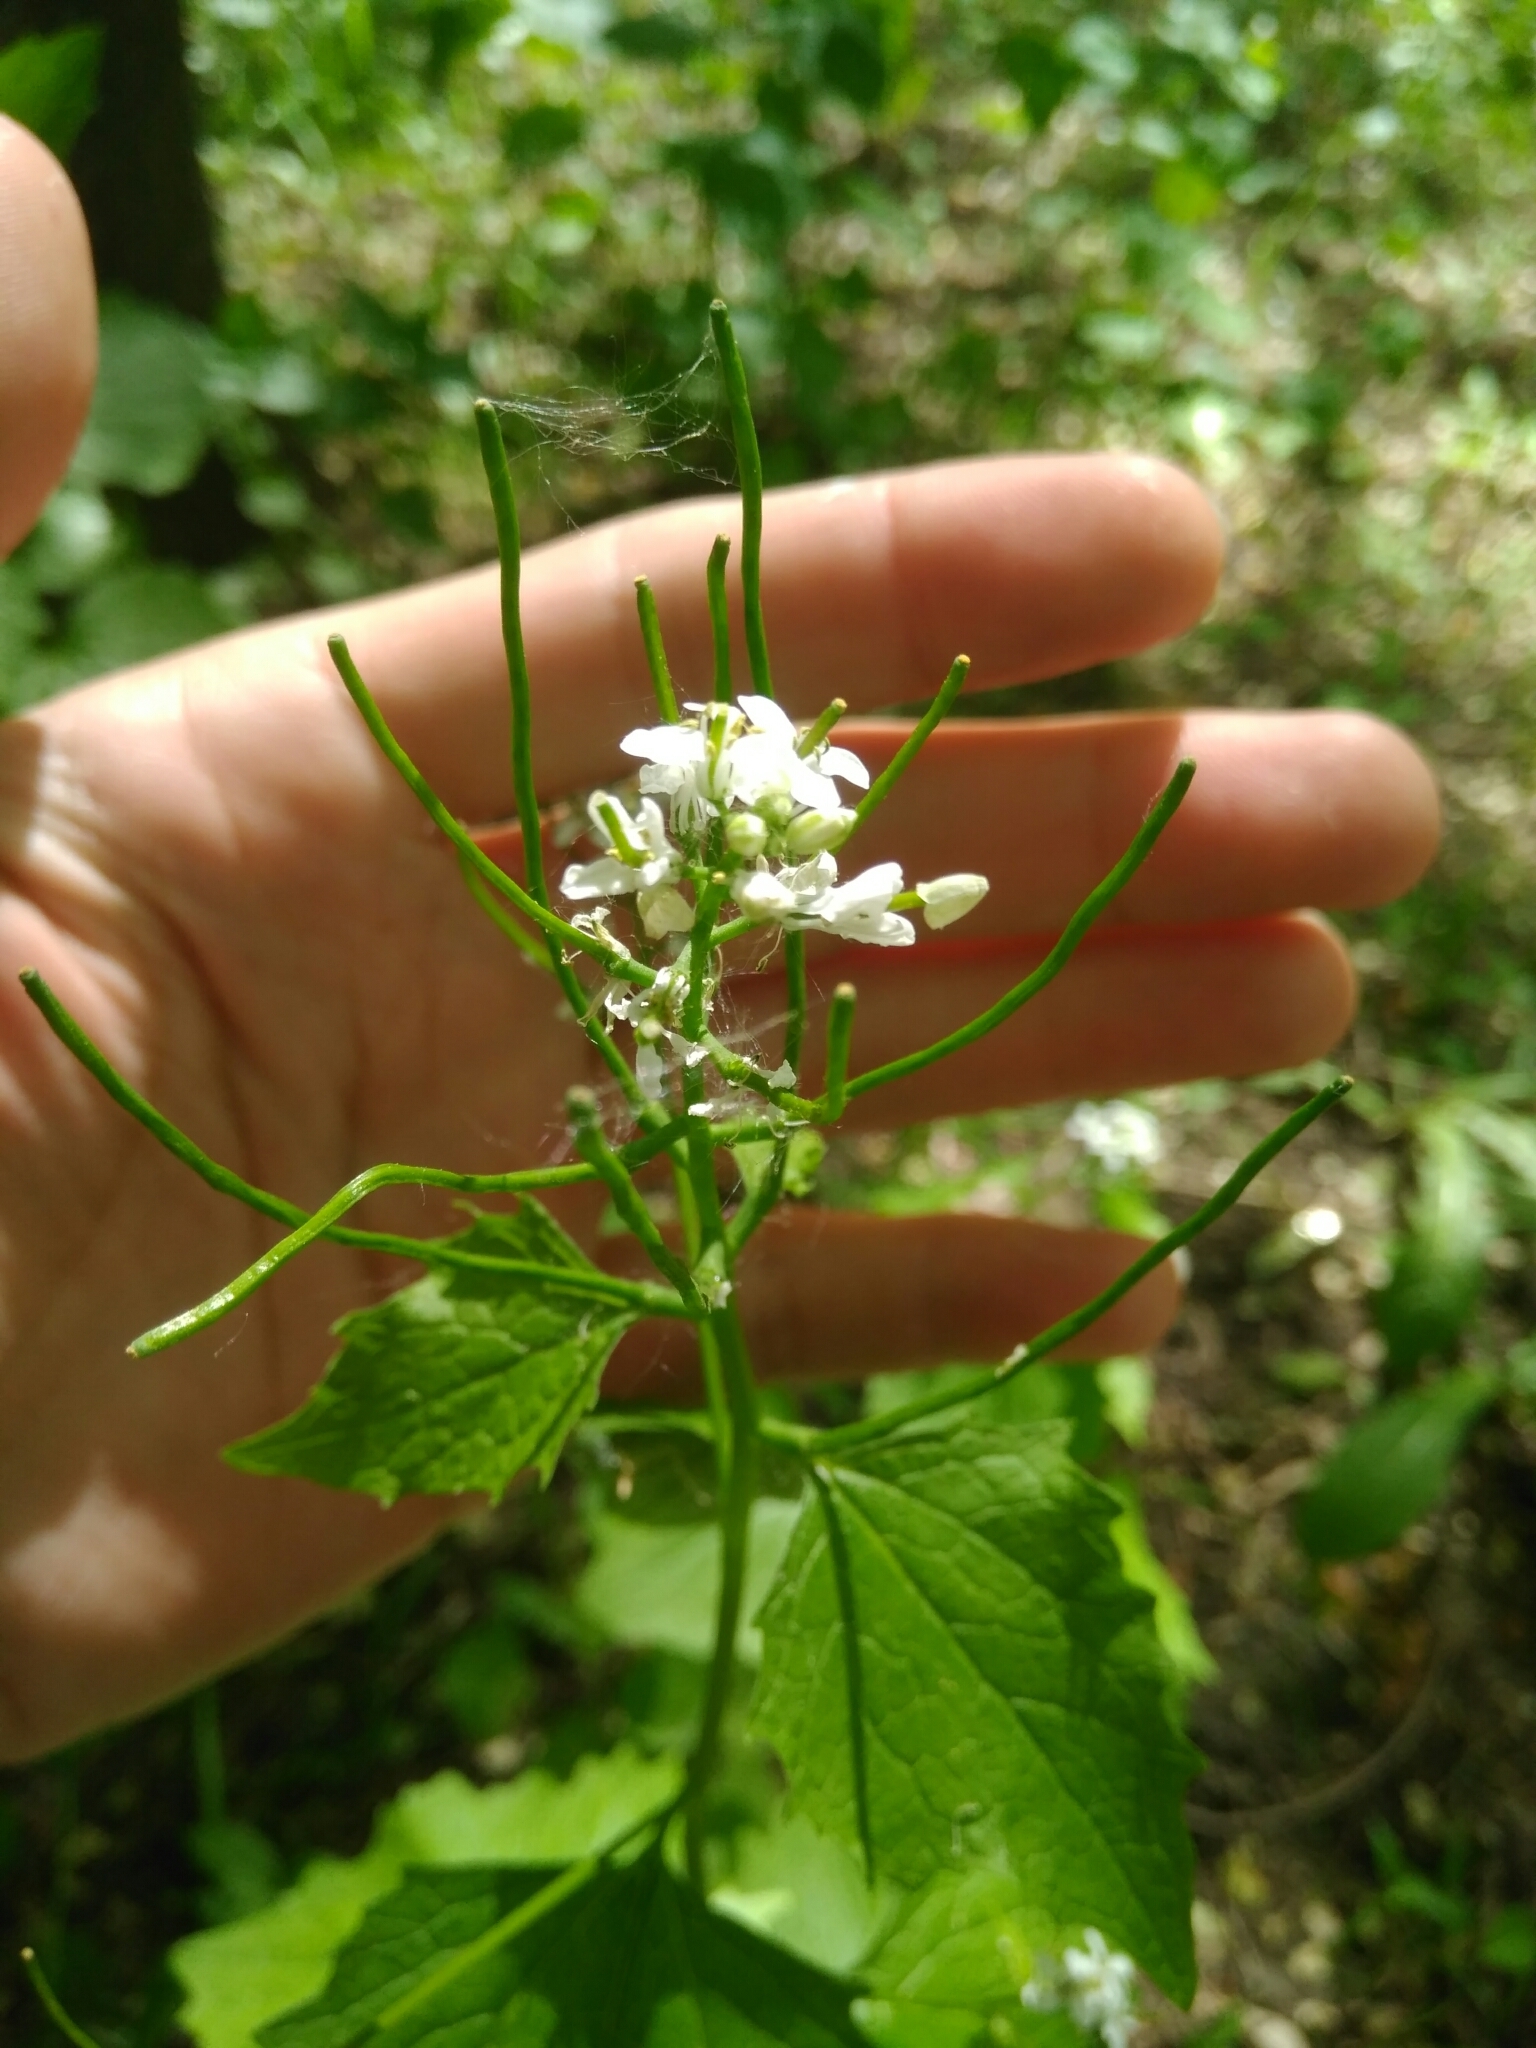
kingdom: Plantae
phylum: Tracheophyta
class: Magnoliopsida
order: Brassicales
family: Brassicaceae
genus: Alliaria
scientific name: Alliaria petiolata
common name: Garlic mustard
